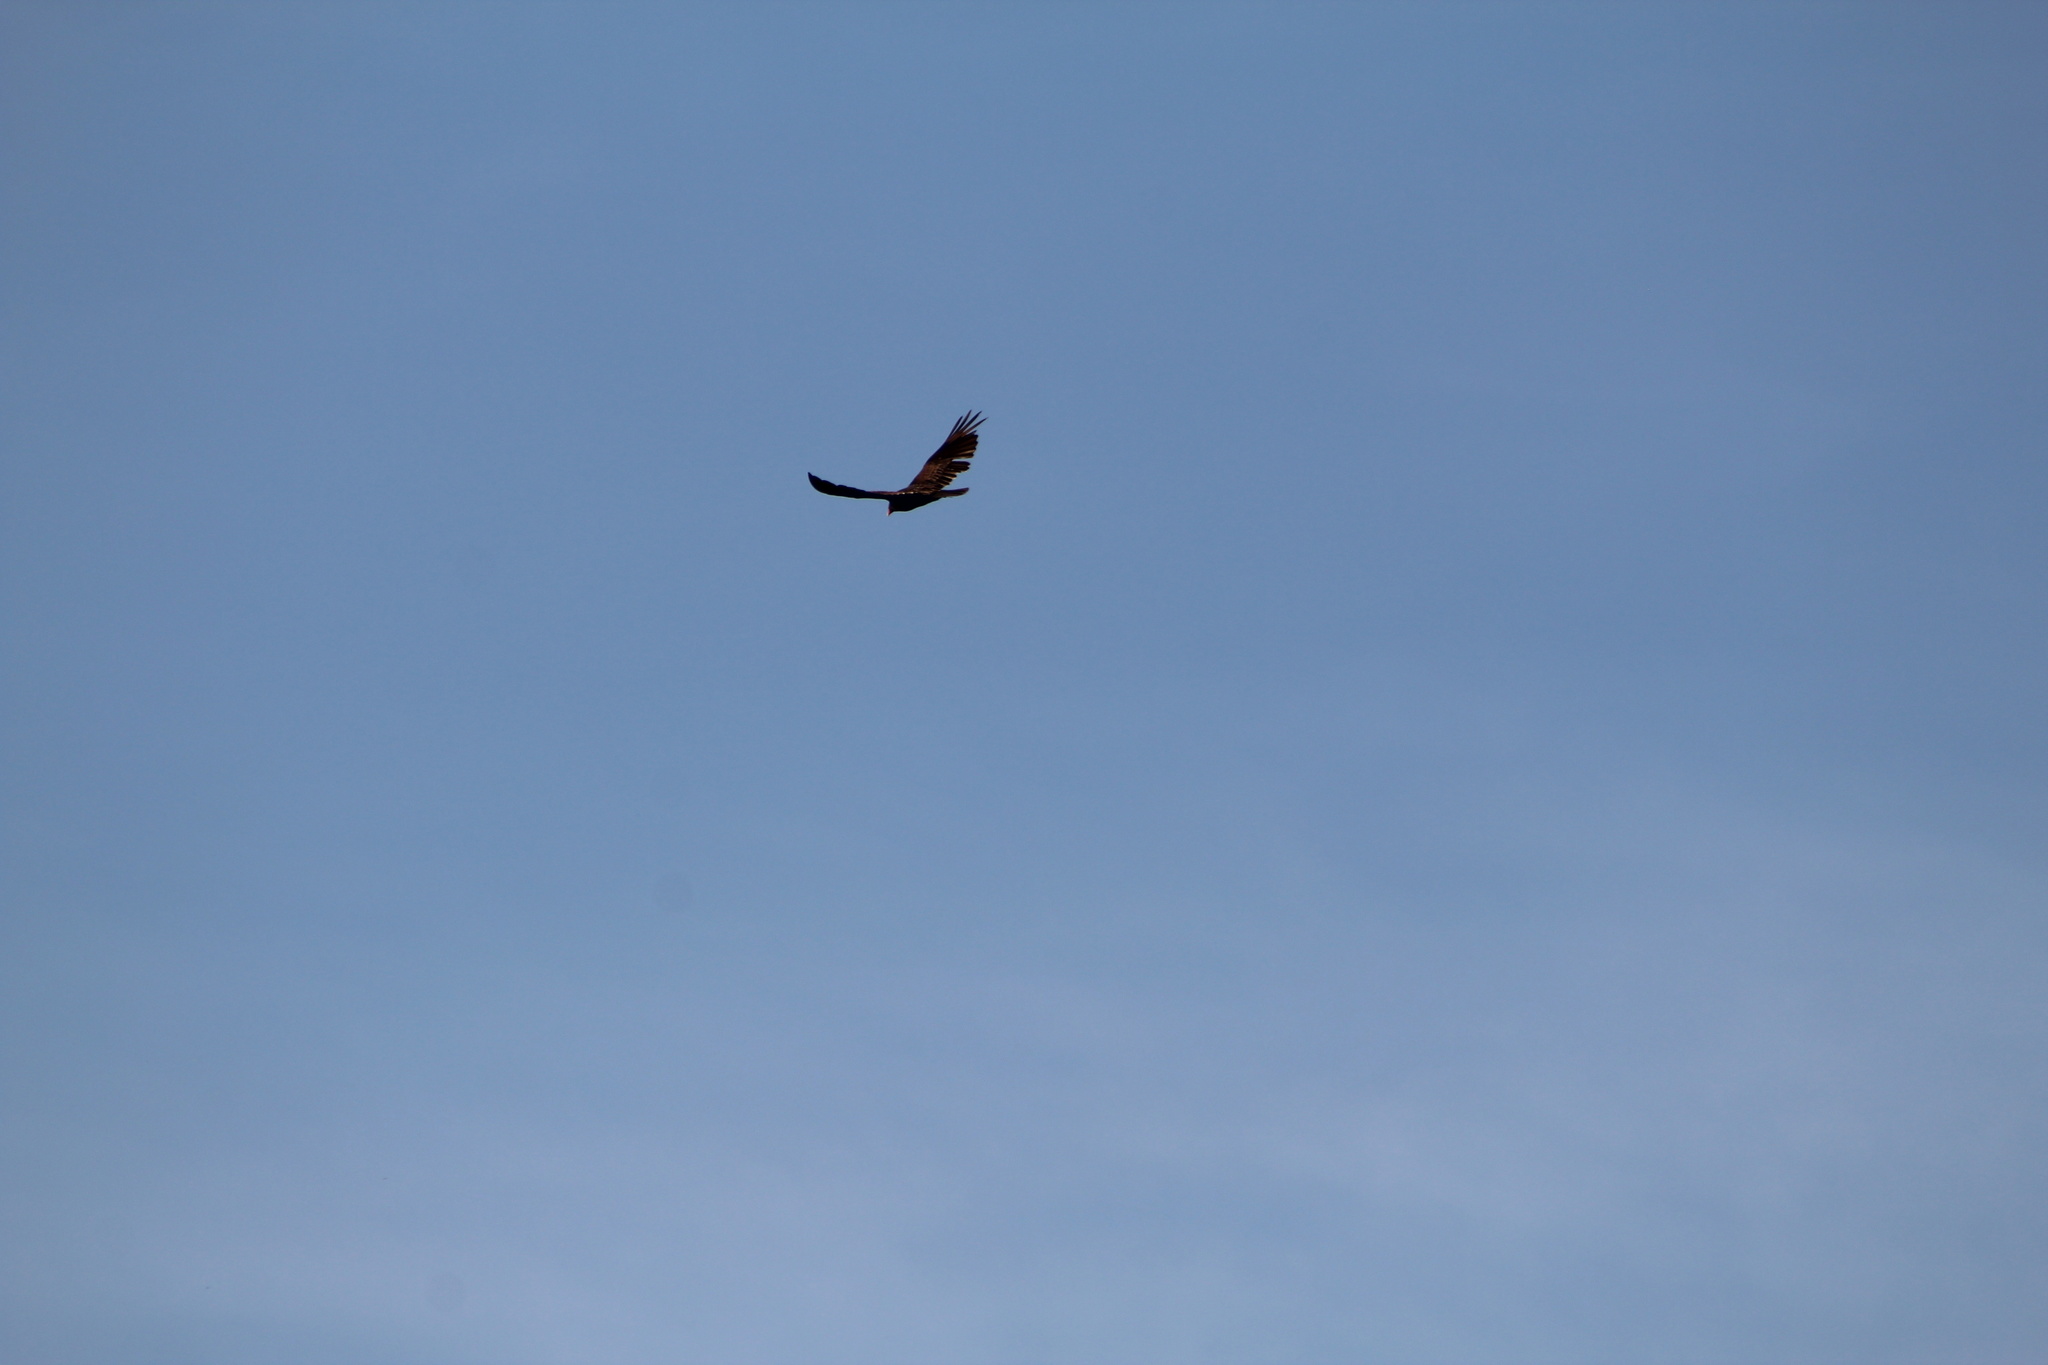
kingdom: Animalia
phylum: Chordata
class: Aves
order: Accipitriformes
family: Cathartidae
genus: Cathartes
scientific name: Cathartes aura
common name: Turkey vulture
